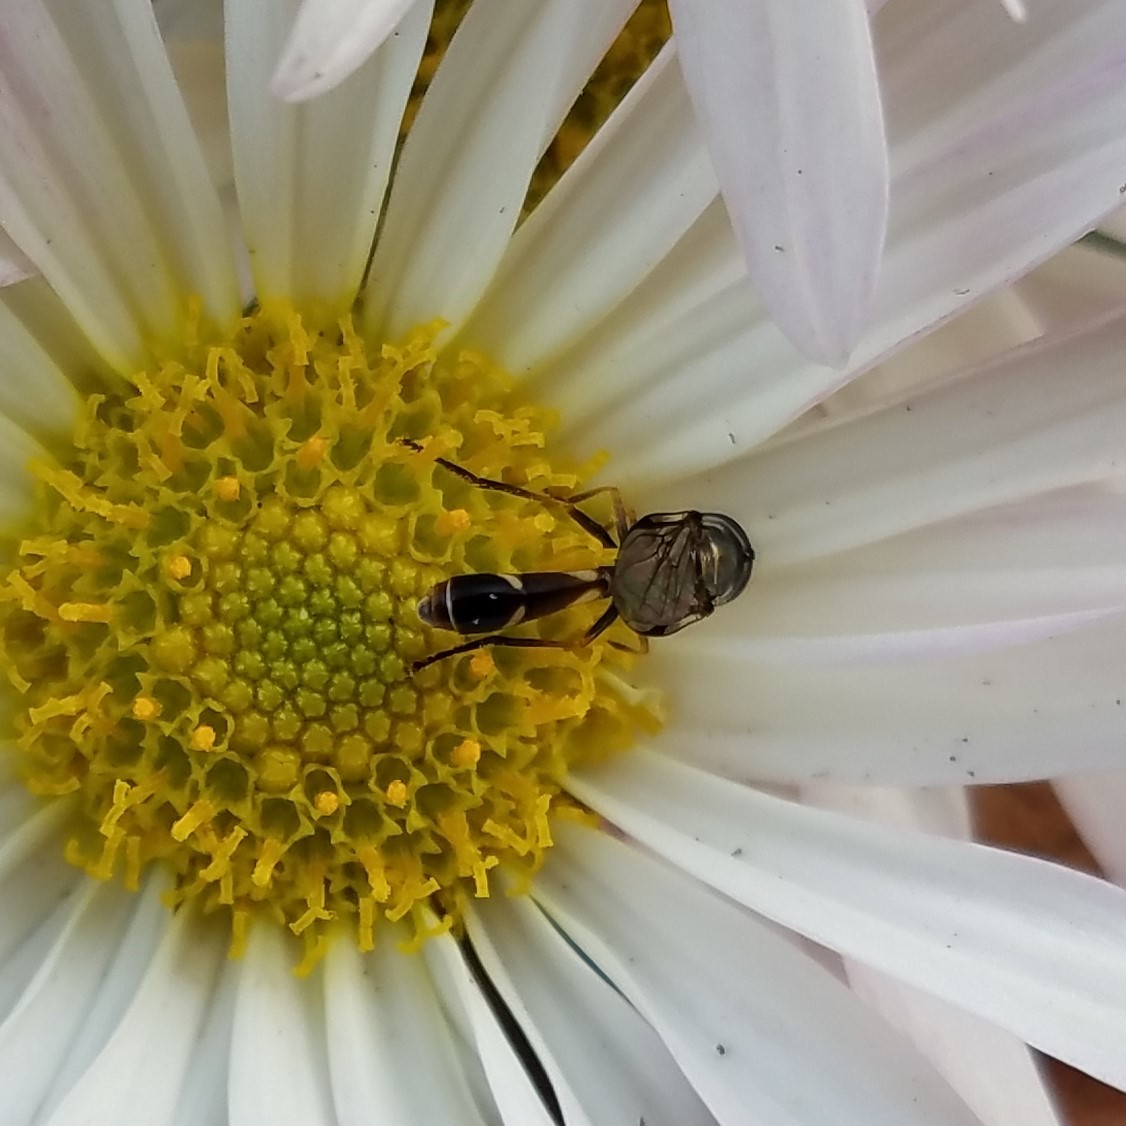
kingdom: Animalia
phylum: Arthropoda
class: Insecta
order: Diptera
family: Syrphidae
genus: Dioprosopa
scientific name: Dioprosopa clavatus
